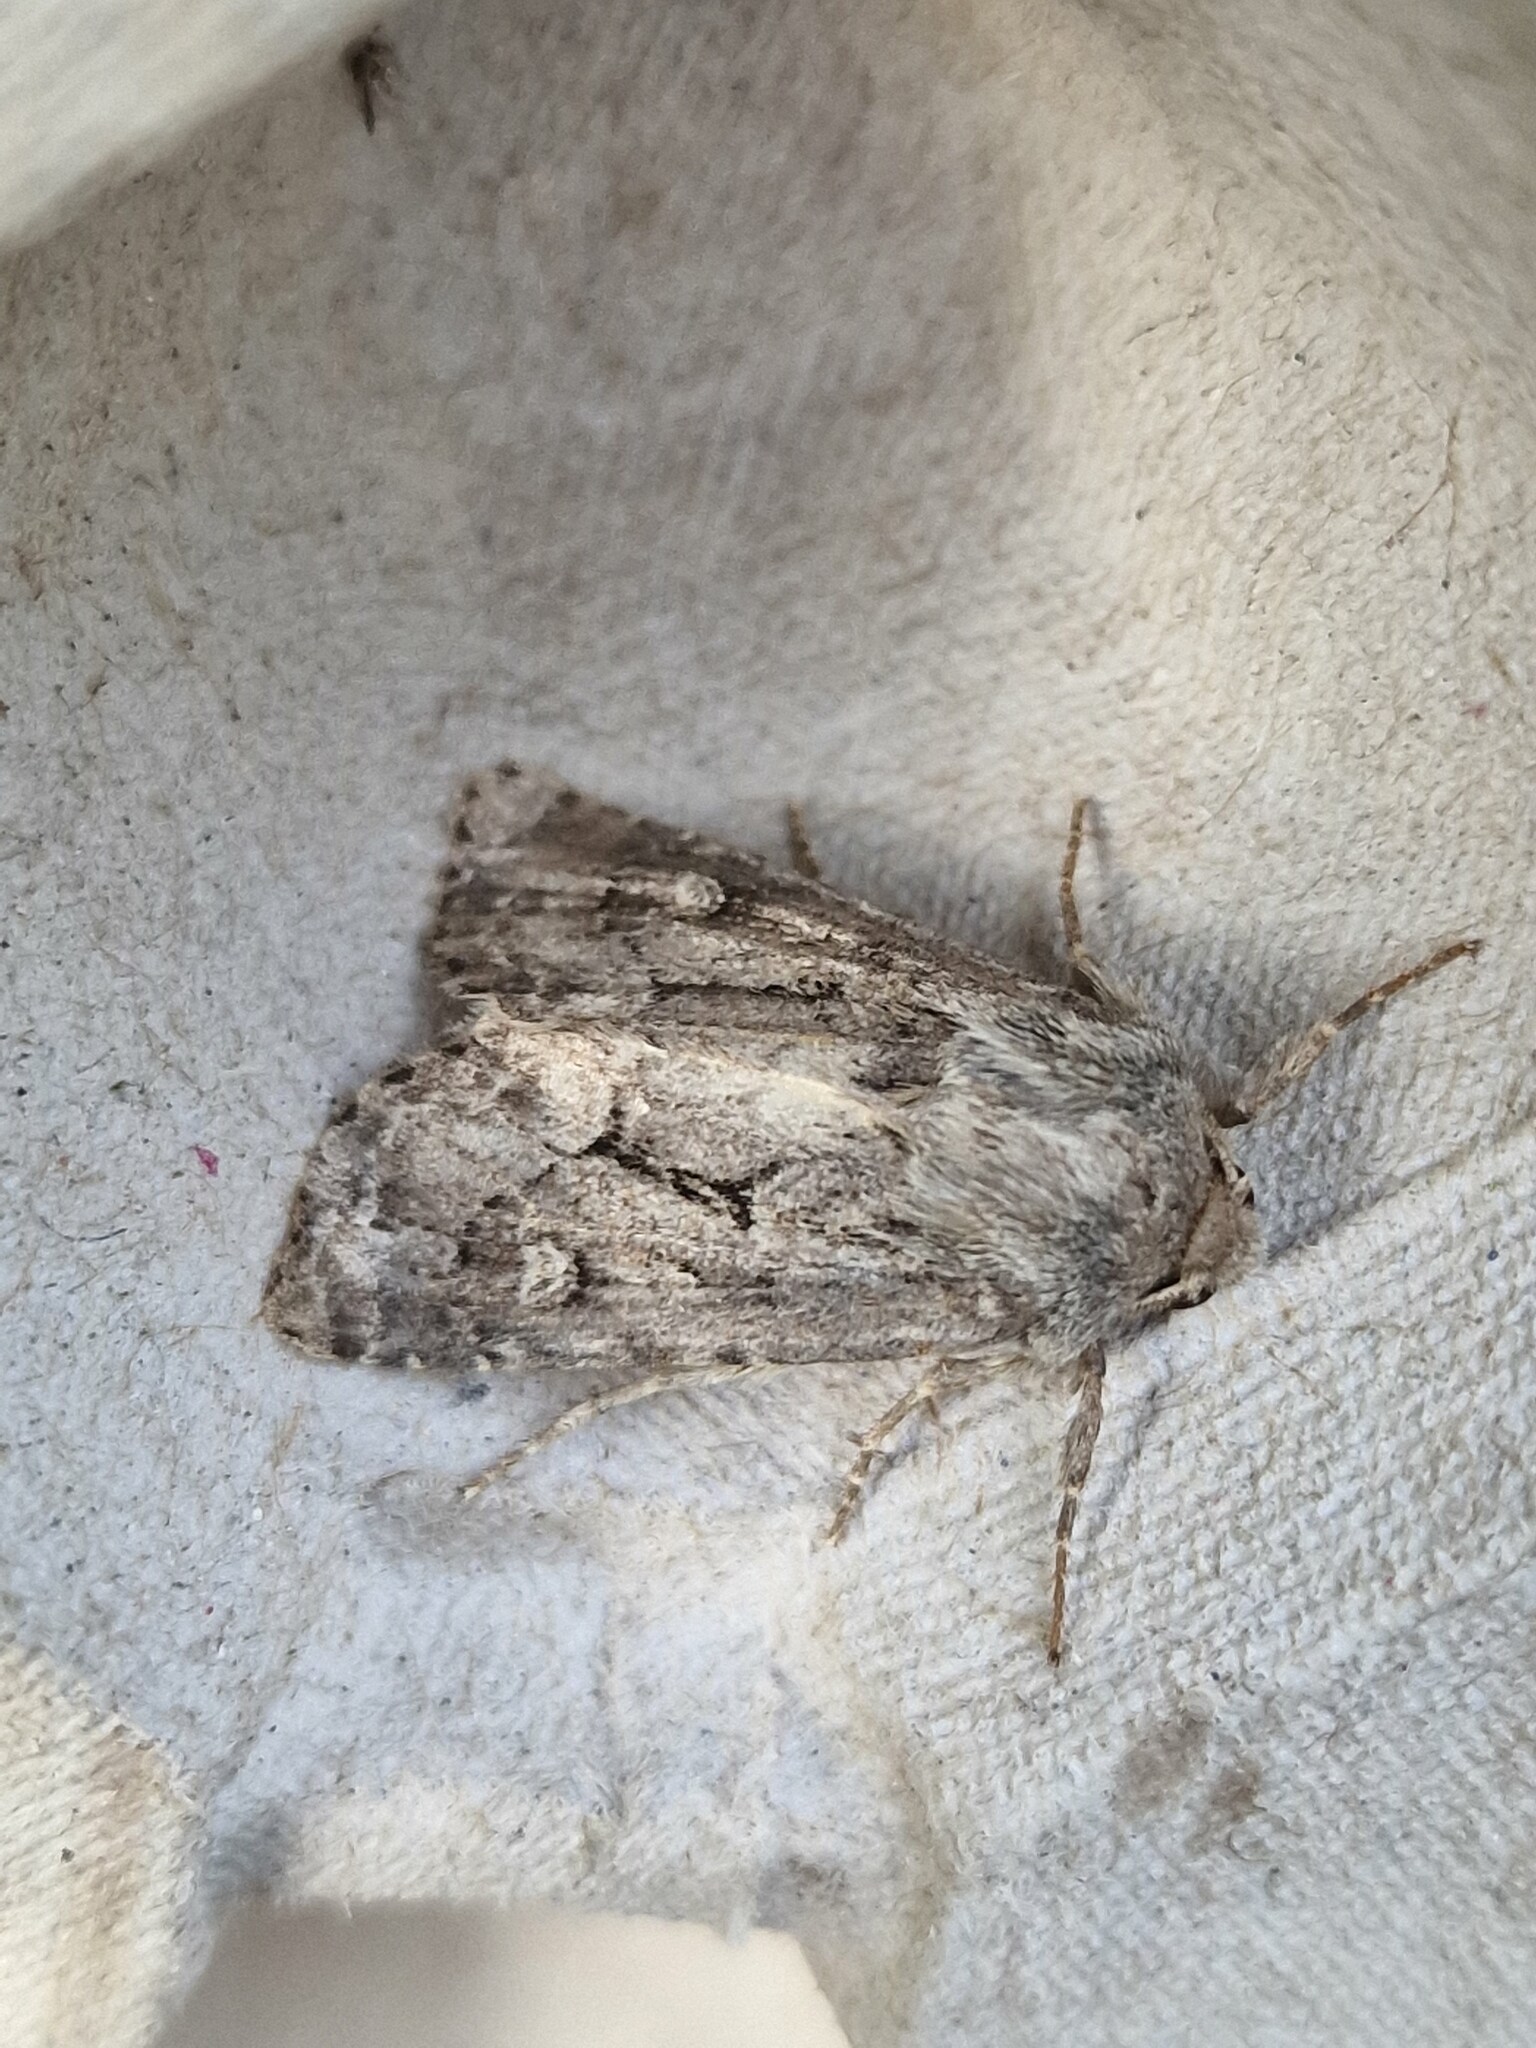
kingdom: Animalia
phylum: Arthropoda
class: Insecta
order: Lepidoptera
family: Noctuidae
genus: Luperina
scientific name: Luperina testacea
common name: Flounced rustic
